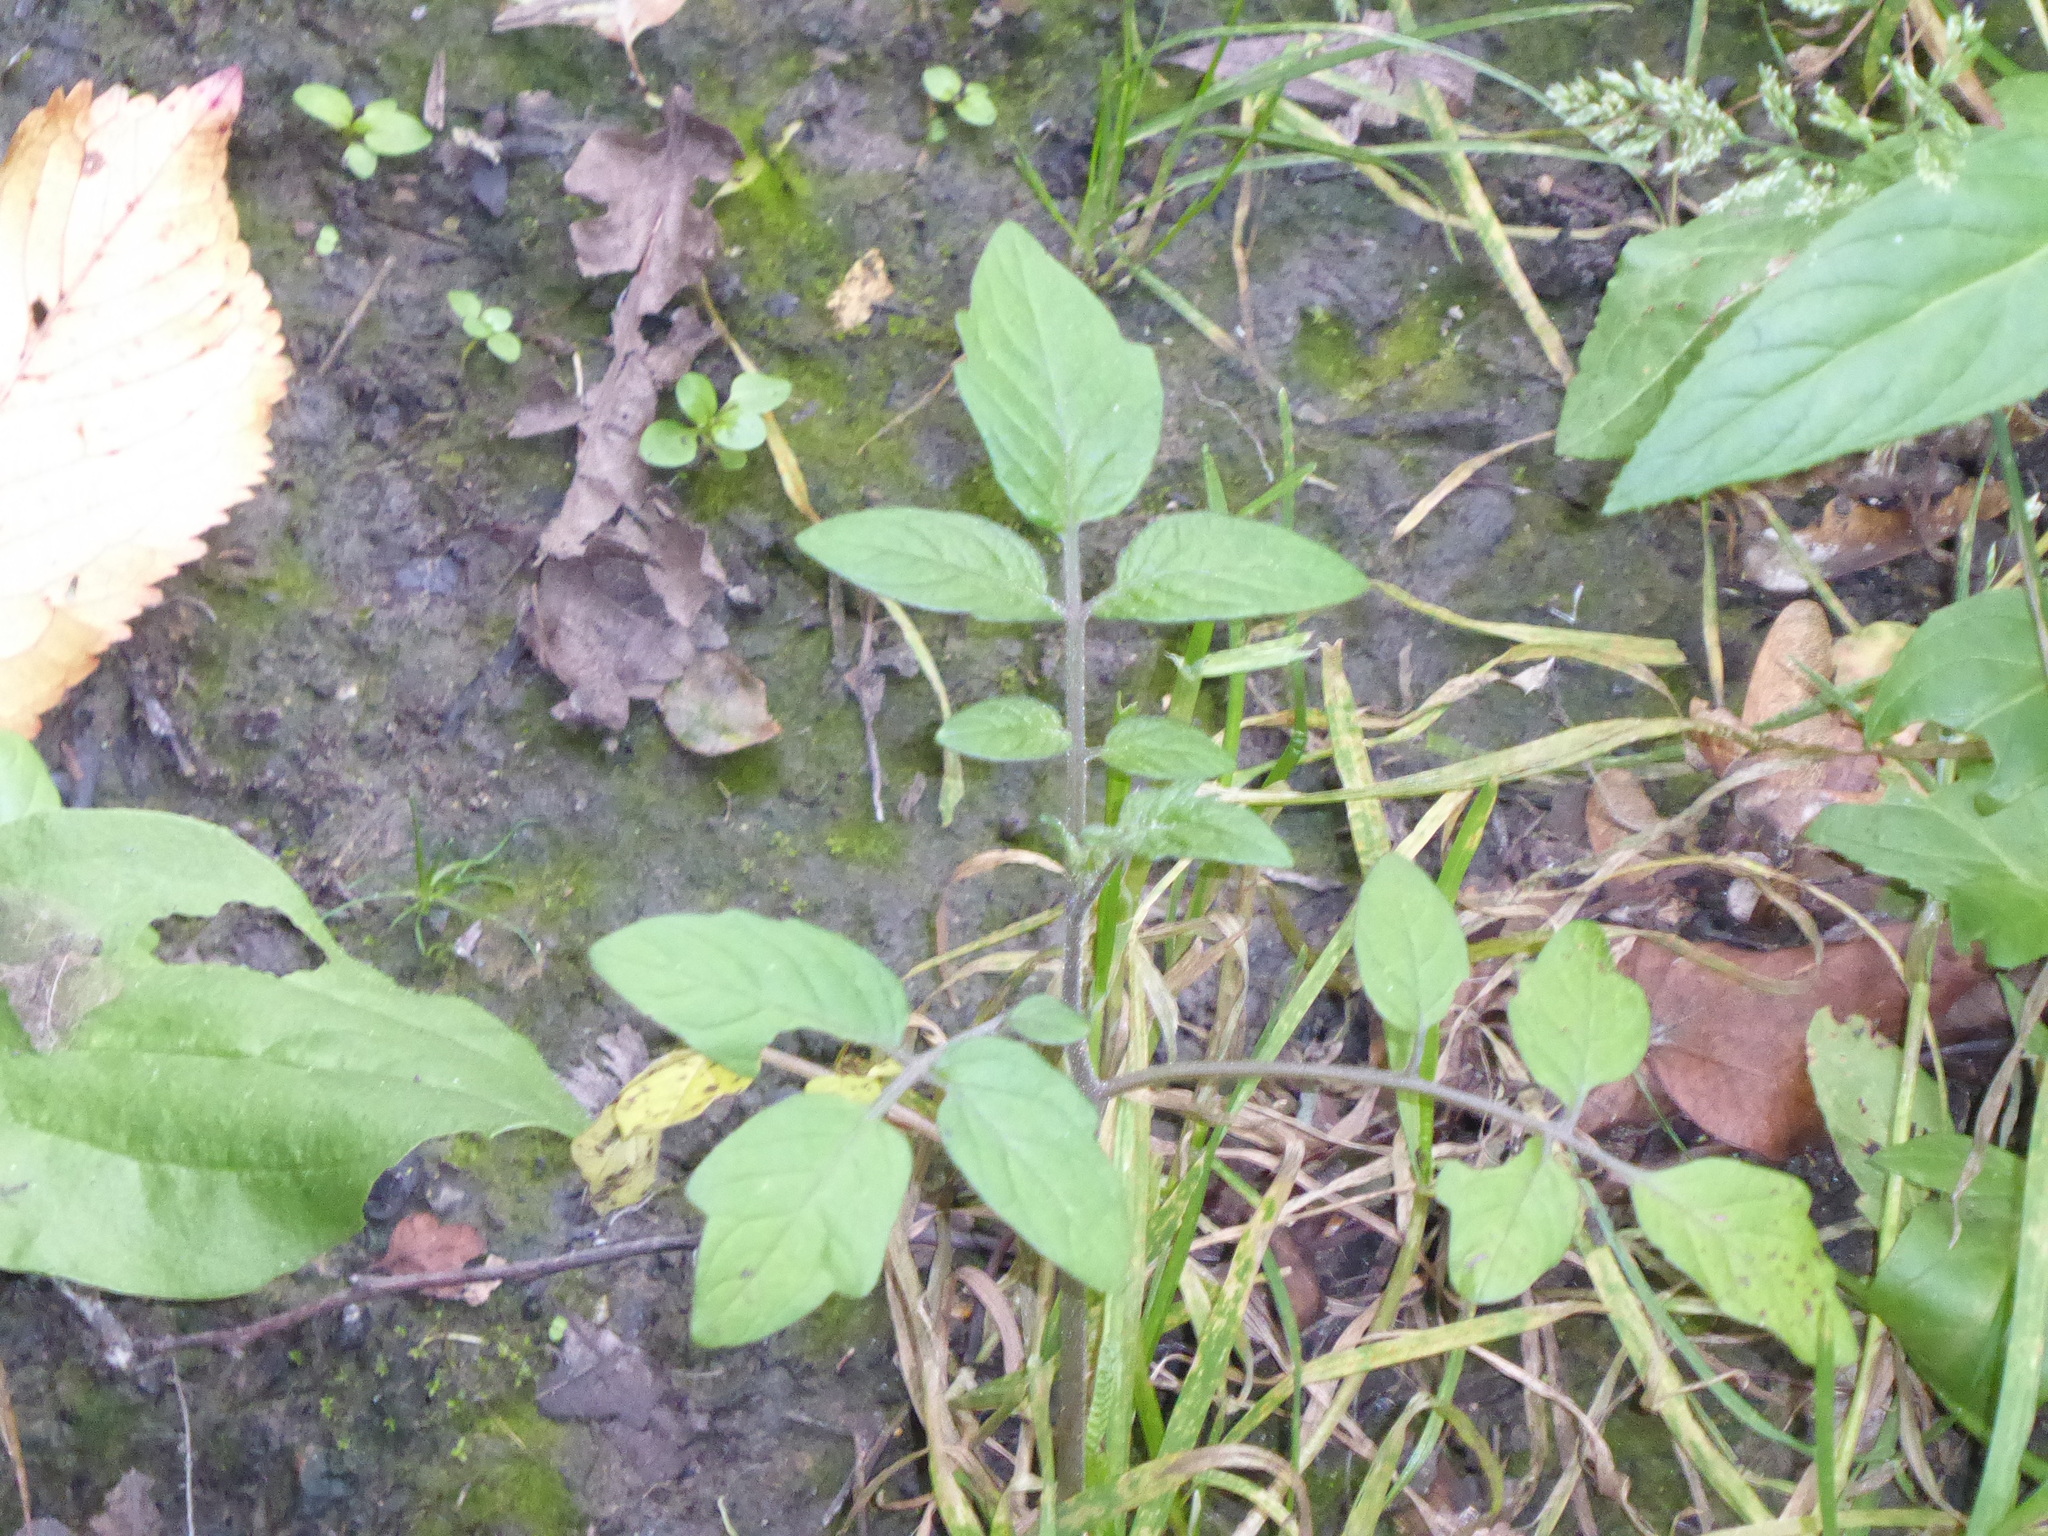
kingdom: Plantae
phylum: Tracheophyta
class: Magnoliopsida
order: Solanales
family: Solanaceae
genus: Solanum
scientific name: Solanum lycopersicum
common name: Garden tomato
